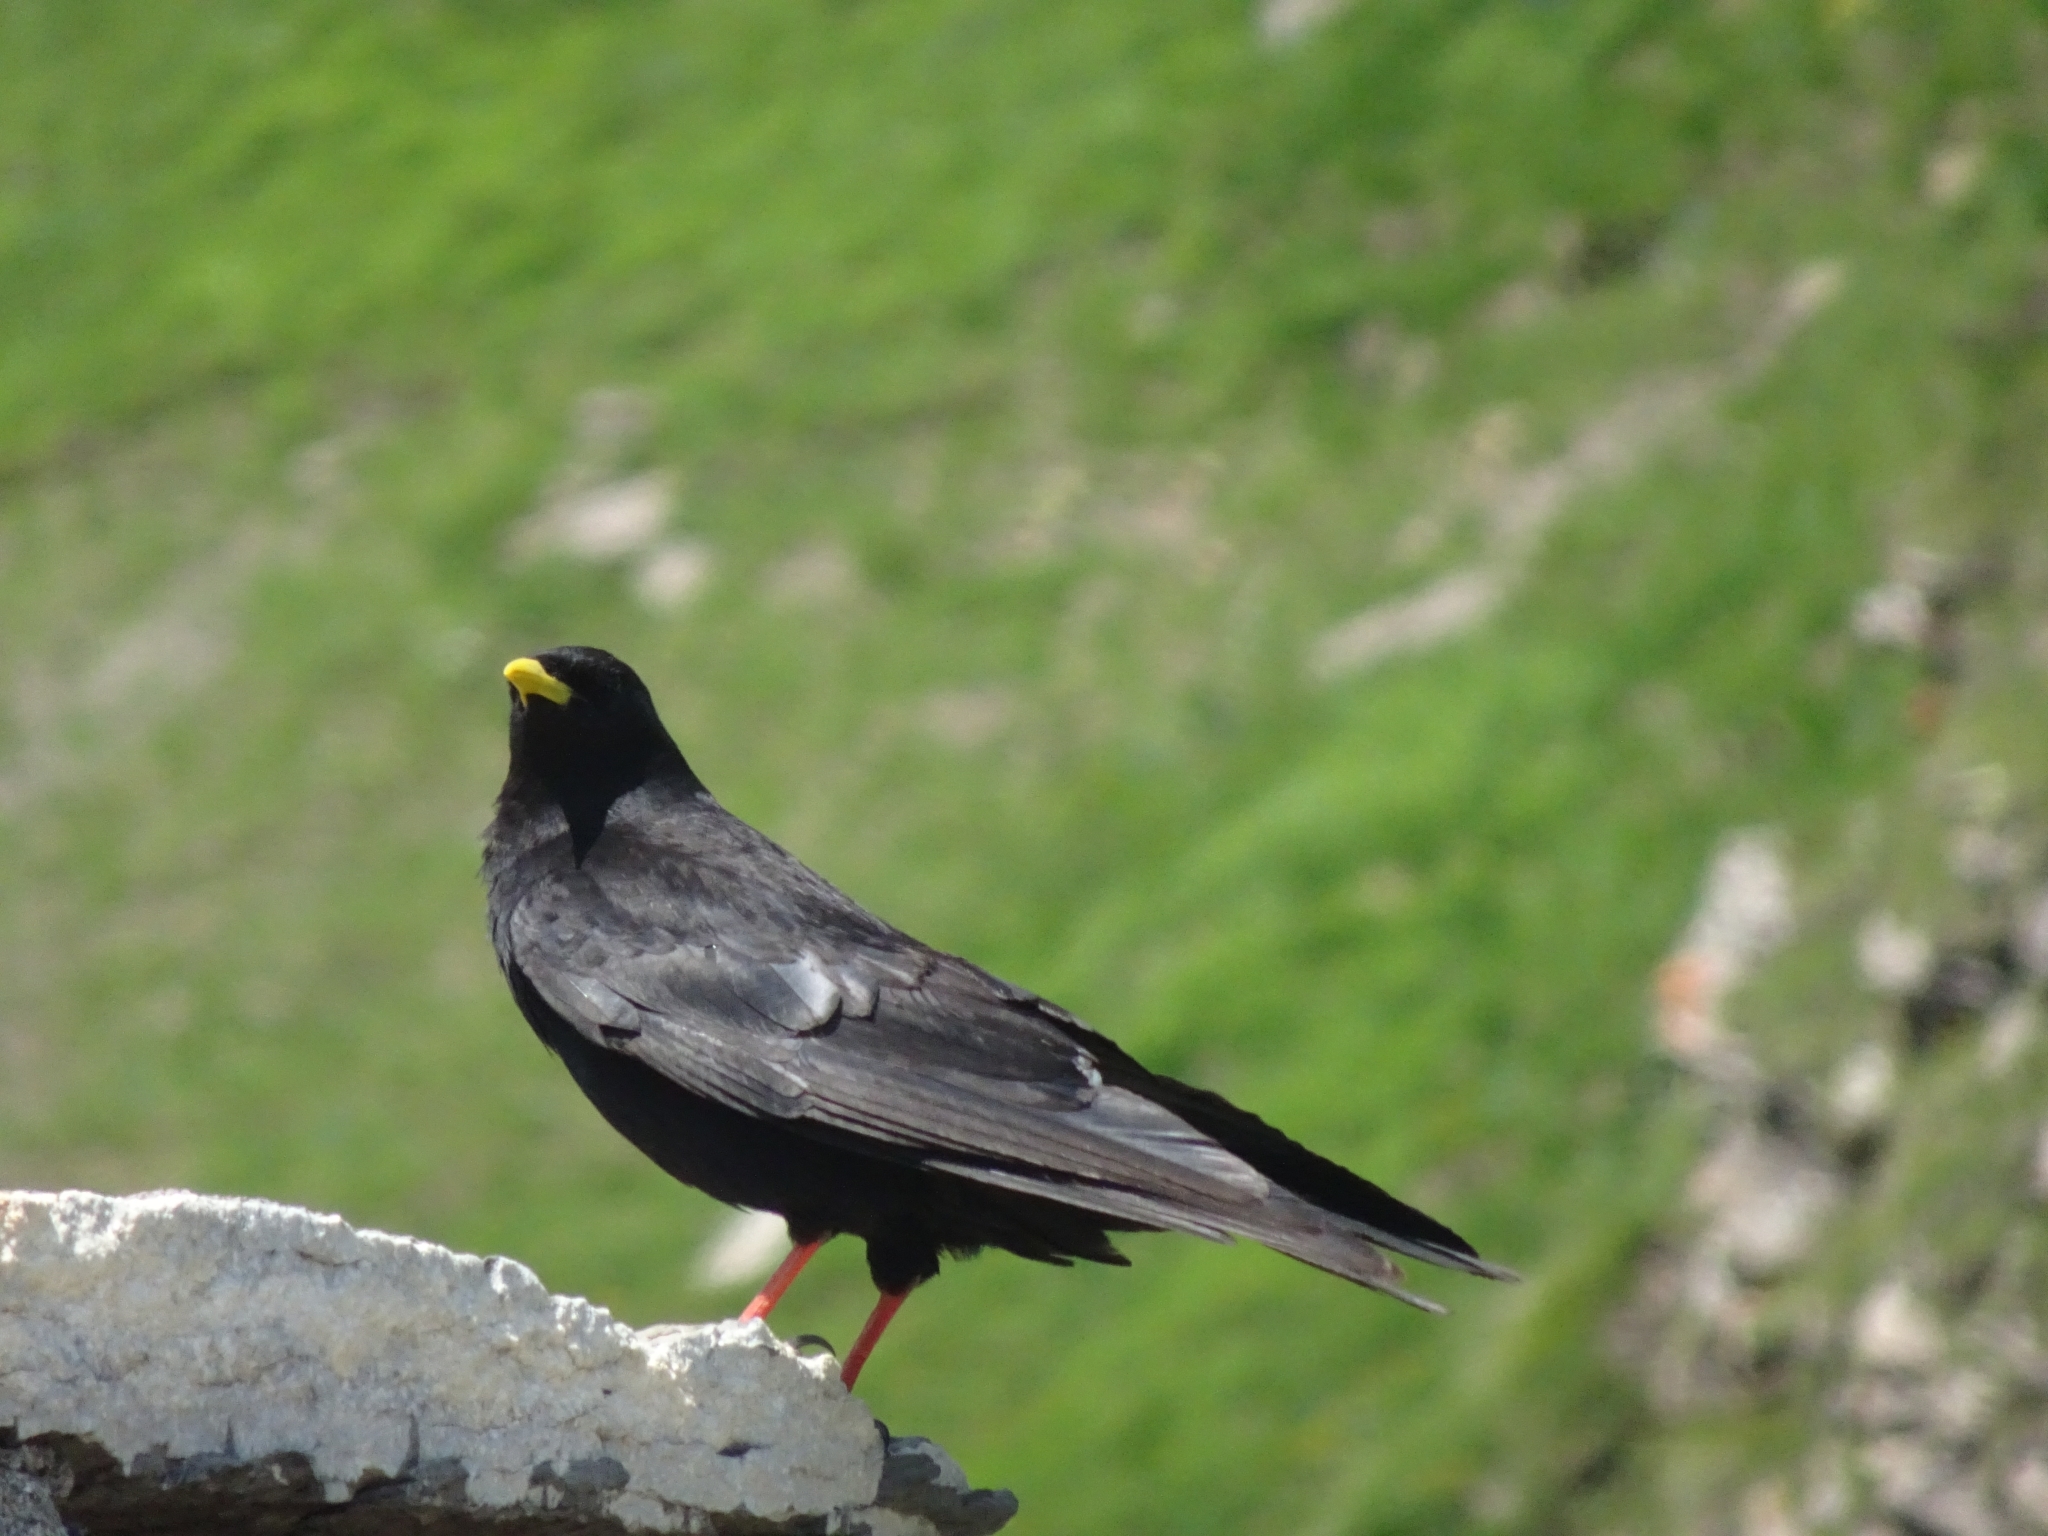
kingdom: Animalia
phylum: Chordata
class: Aves
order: Passeriformes
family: Corvidae
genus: Pyrrhocorax
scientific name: Pyrrhocorax graculus
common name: Alpine chough
